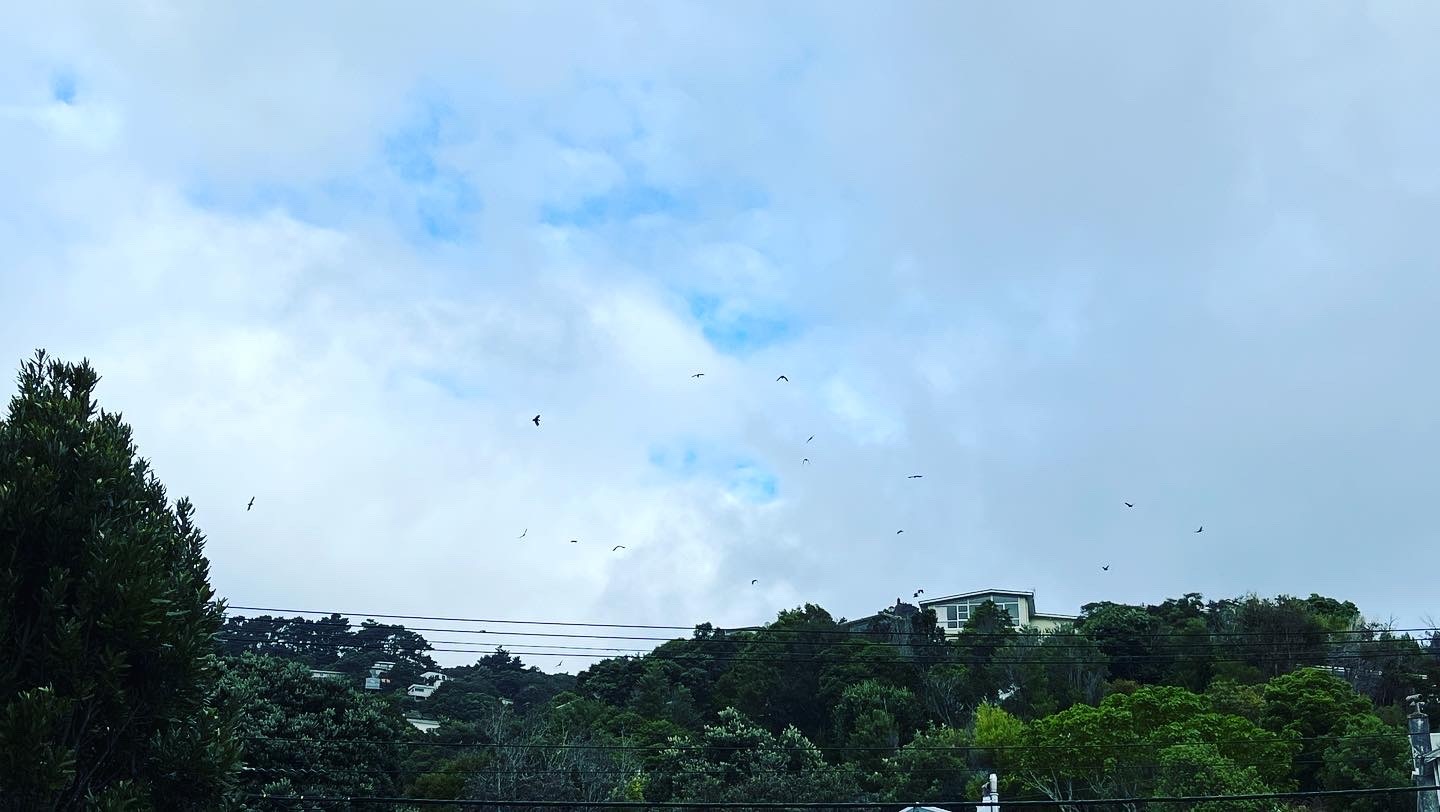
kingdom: Animalia
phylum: Chordata
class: Aves
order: Psittaciformes
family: Psittacidae
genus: Nestor
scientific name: Nestor meridionalis
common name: New zealand kaka
